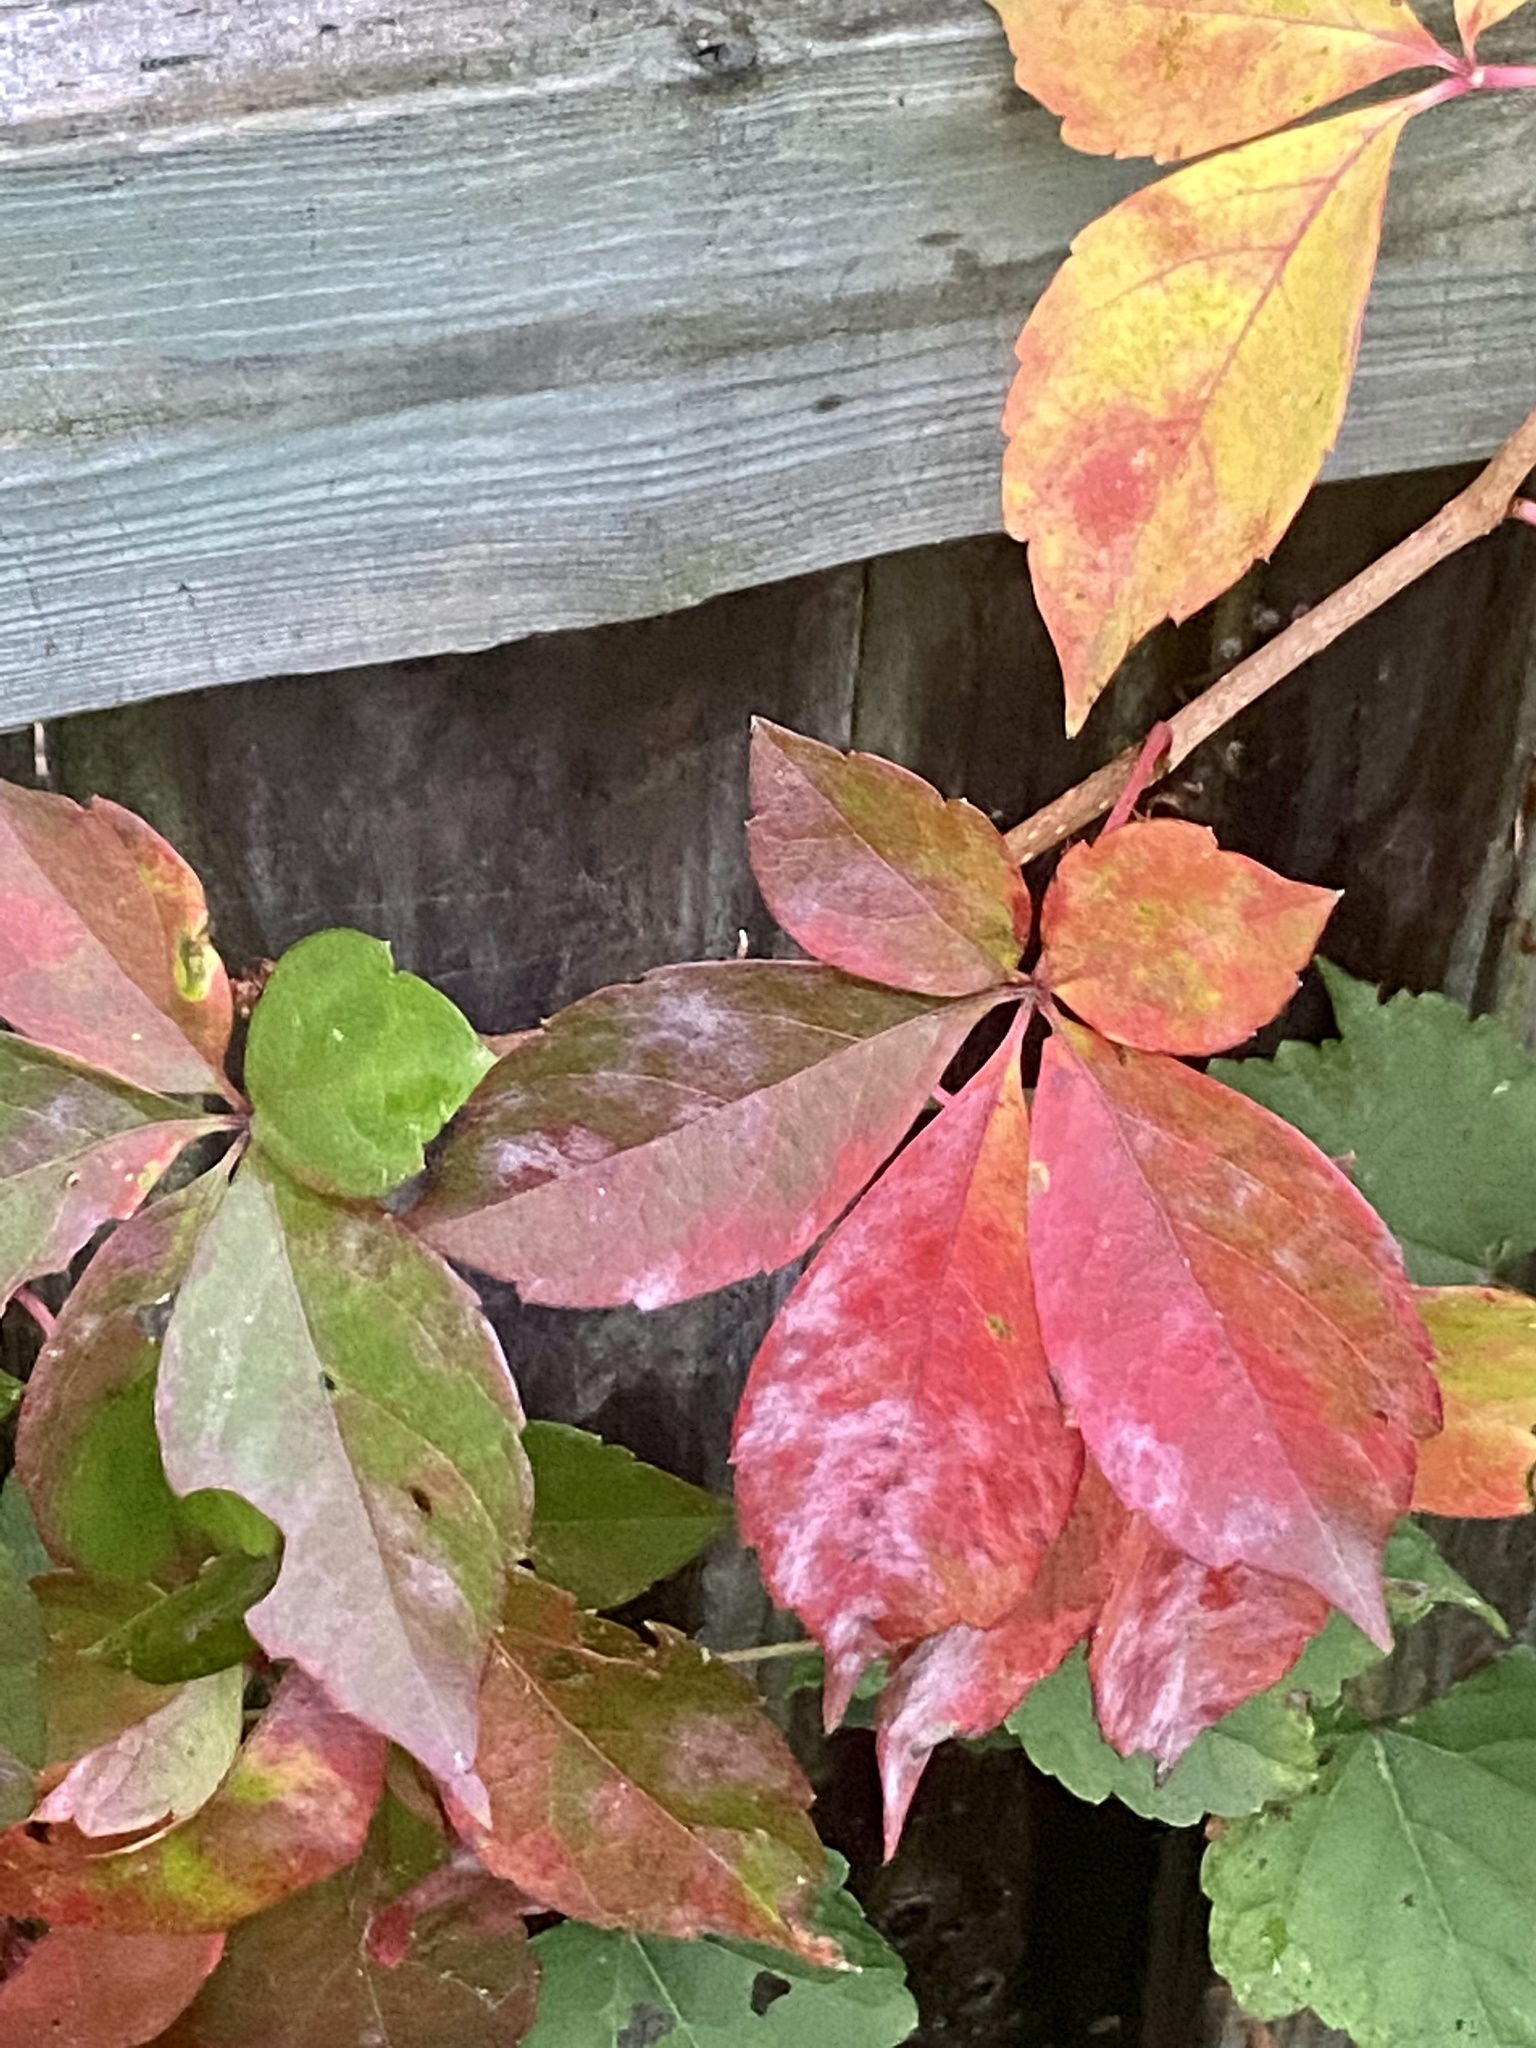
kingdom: Plantae
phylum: Tracheophyta
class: Magnoliopsida
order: Vitales
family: Vitaceae
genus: Parthenocissus
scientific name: Parthenocissus quinquefolia
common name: Virginia-creeper
